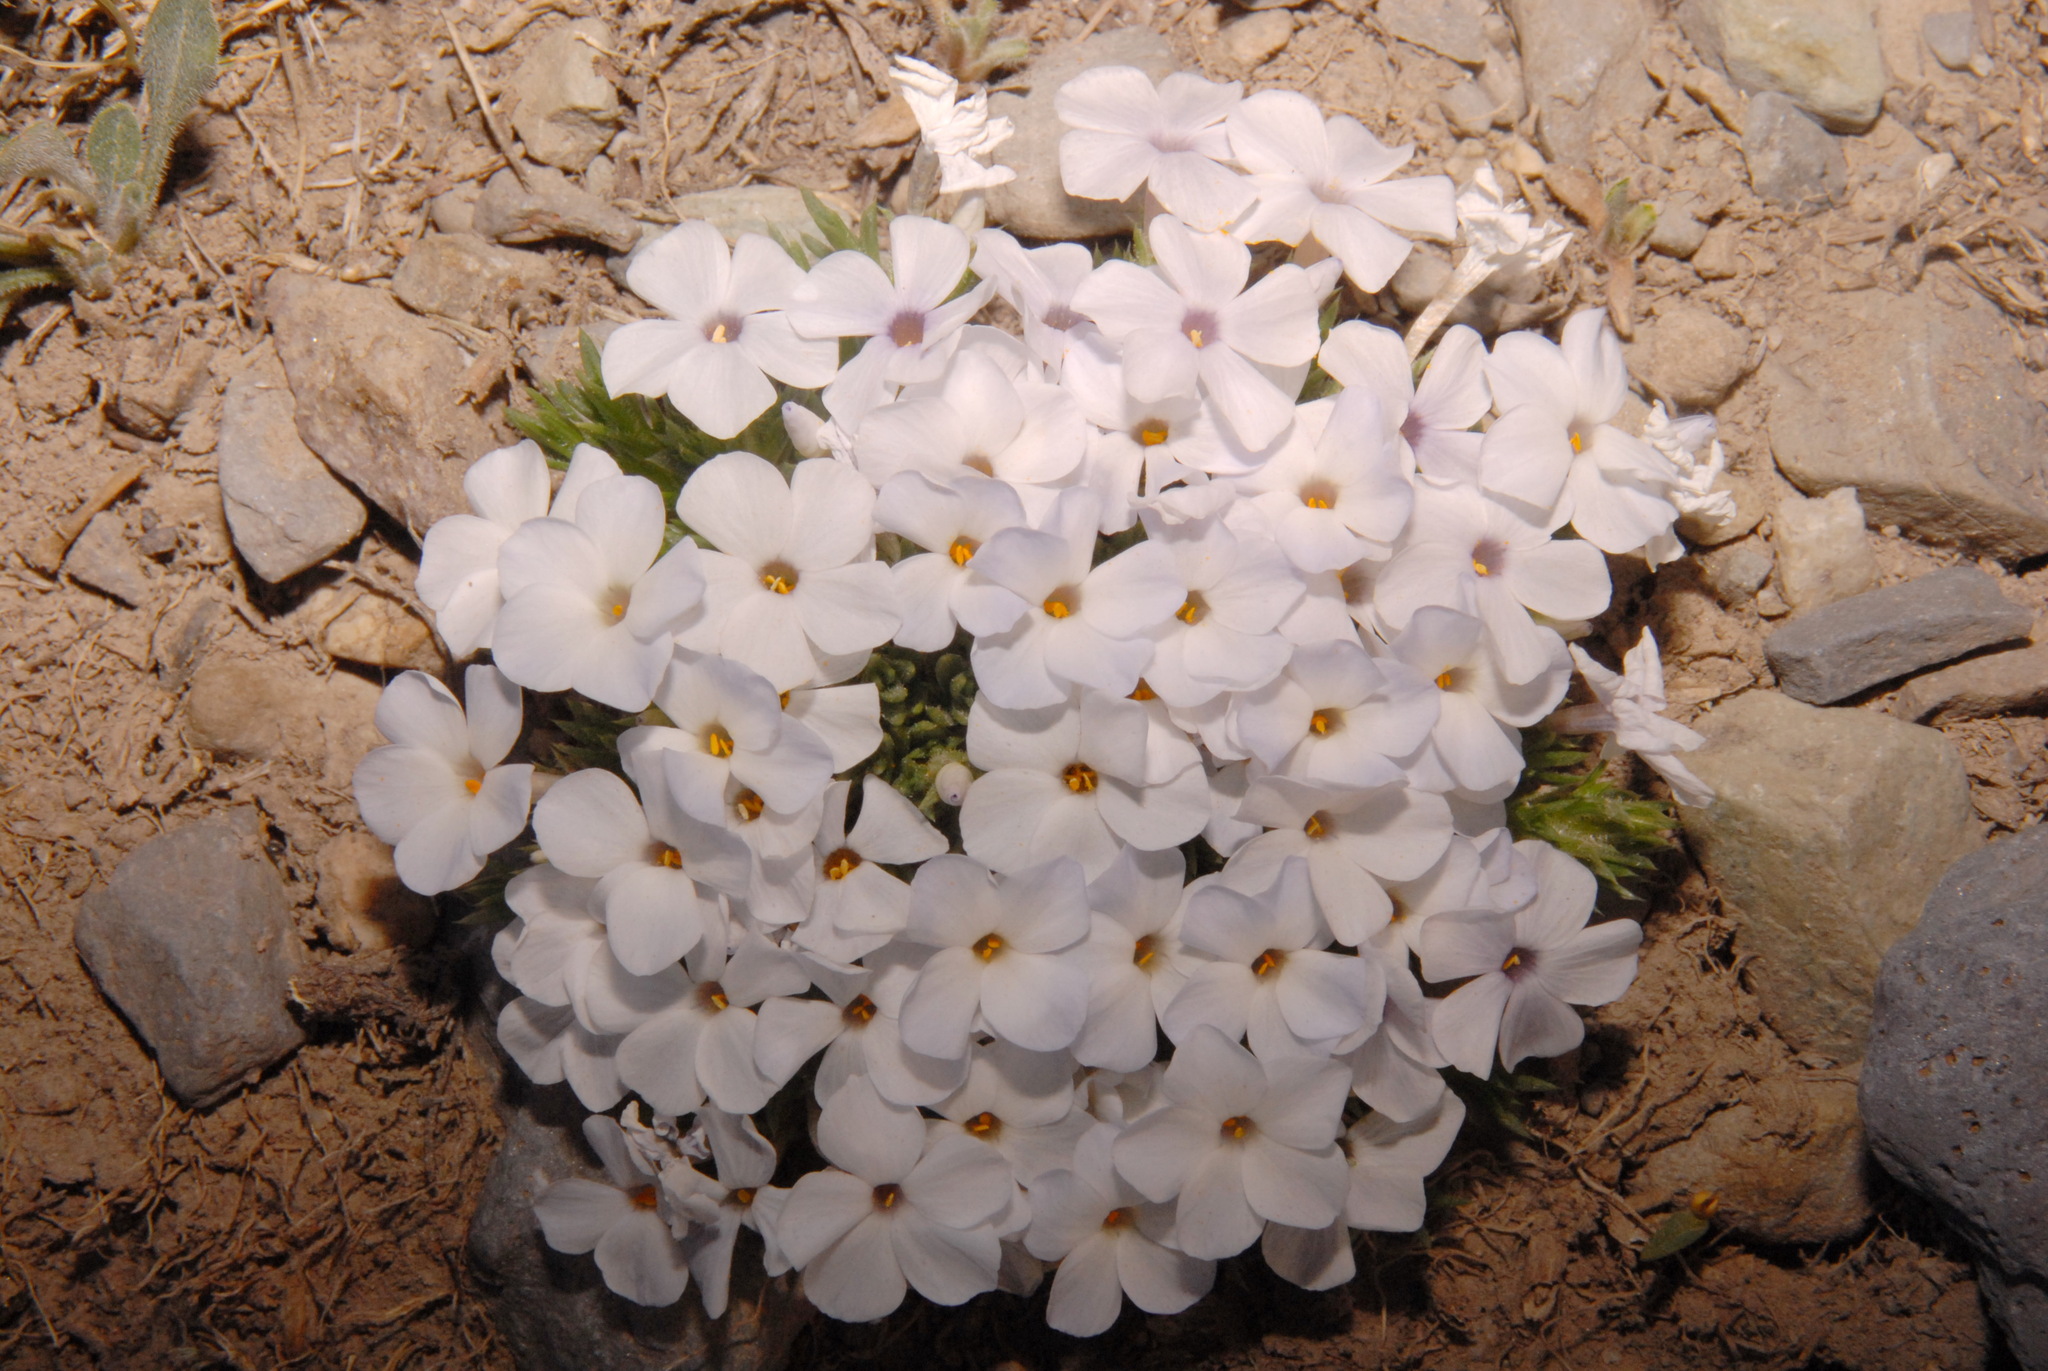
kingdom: Plantae
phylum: Tracheophyta
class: Magnoliopsida
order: Ericales
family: Polemoniaceae
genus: Phlox
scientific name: Phlox pulvinata
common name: Cushion phlox
